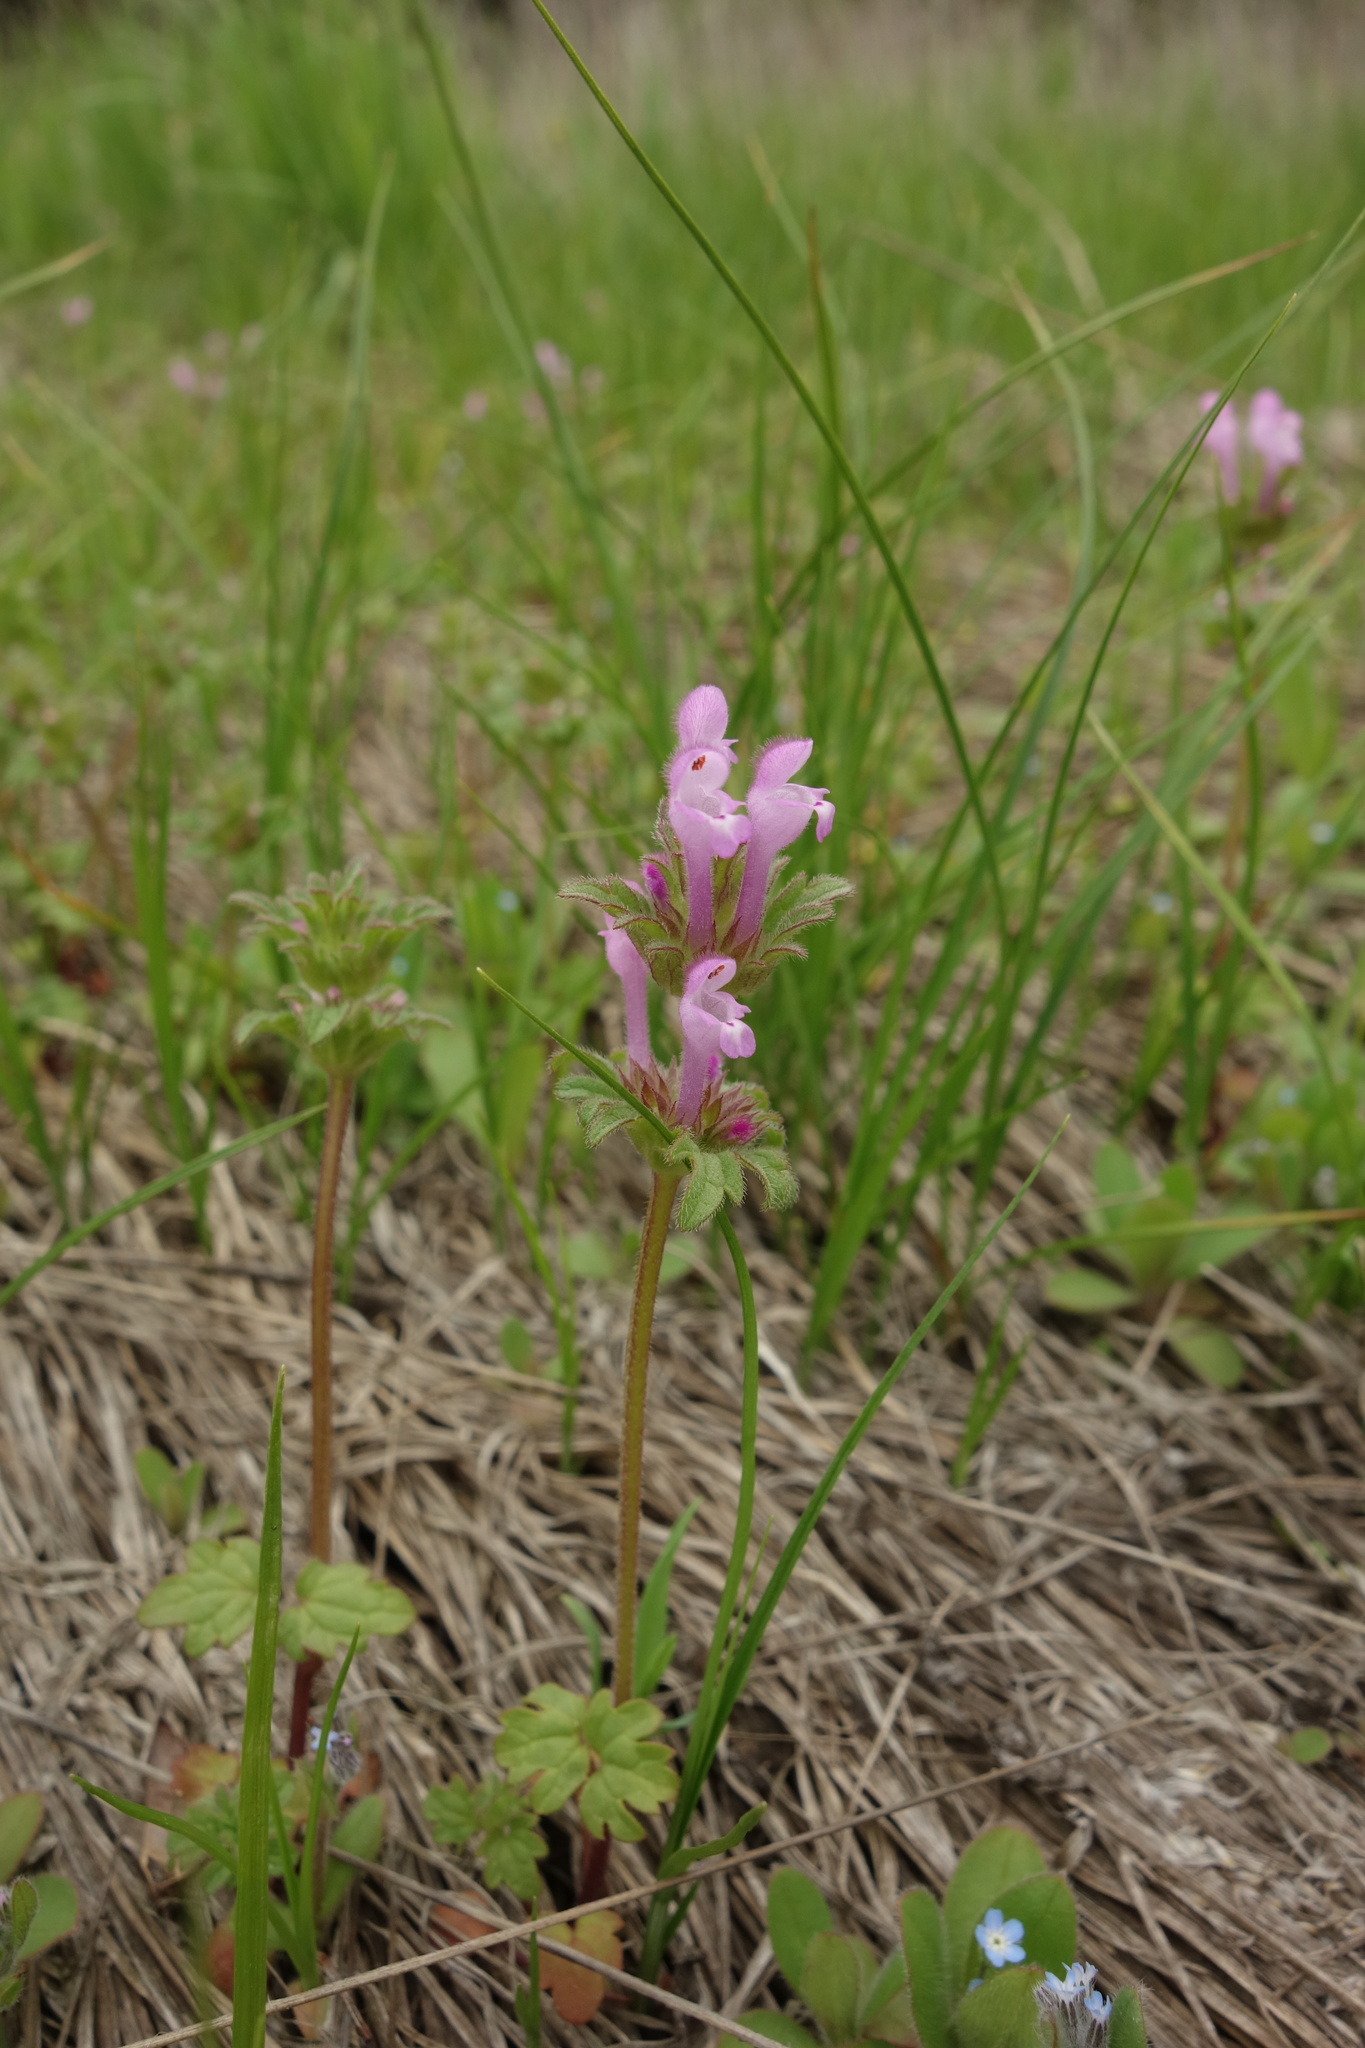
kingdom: Plantae
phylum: Tracheophyta
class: Magnoliopsida
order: Lamiales
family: Lamiaceae
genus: Lamium
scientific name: Lamium amplexicaule
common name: Henbit dead-nettle
